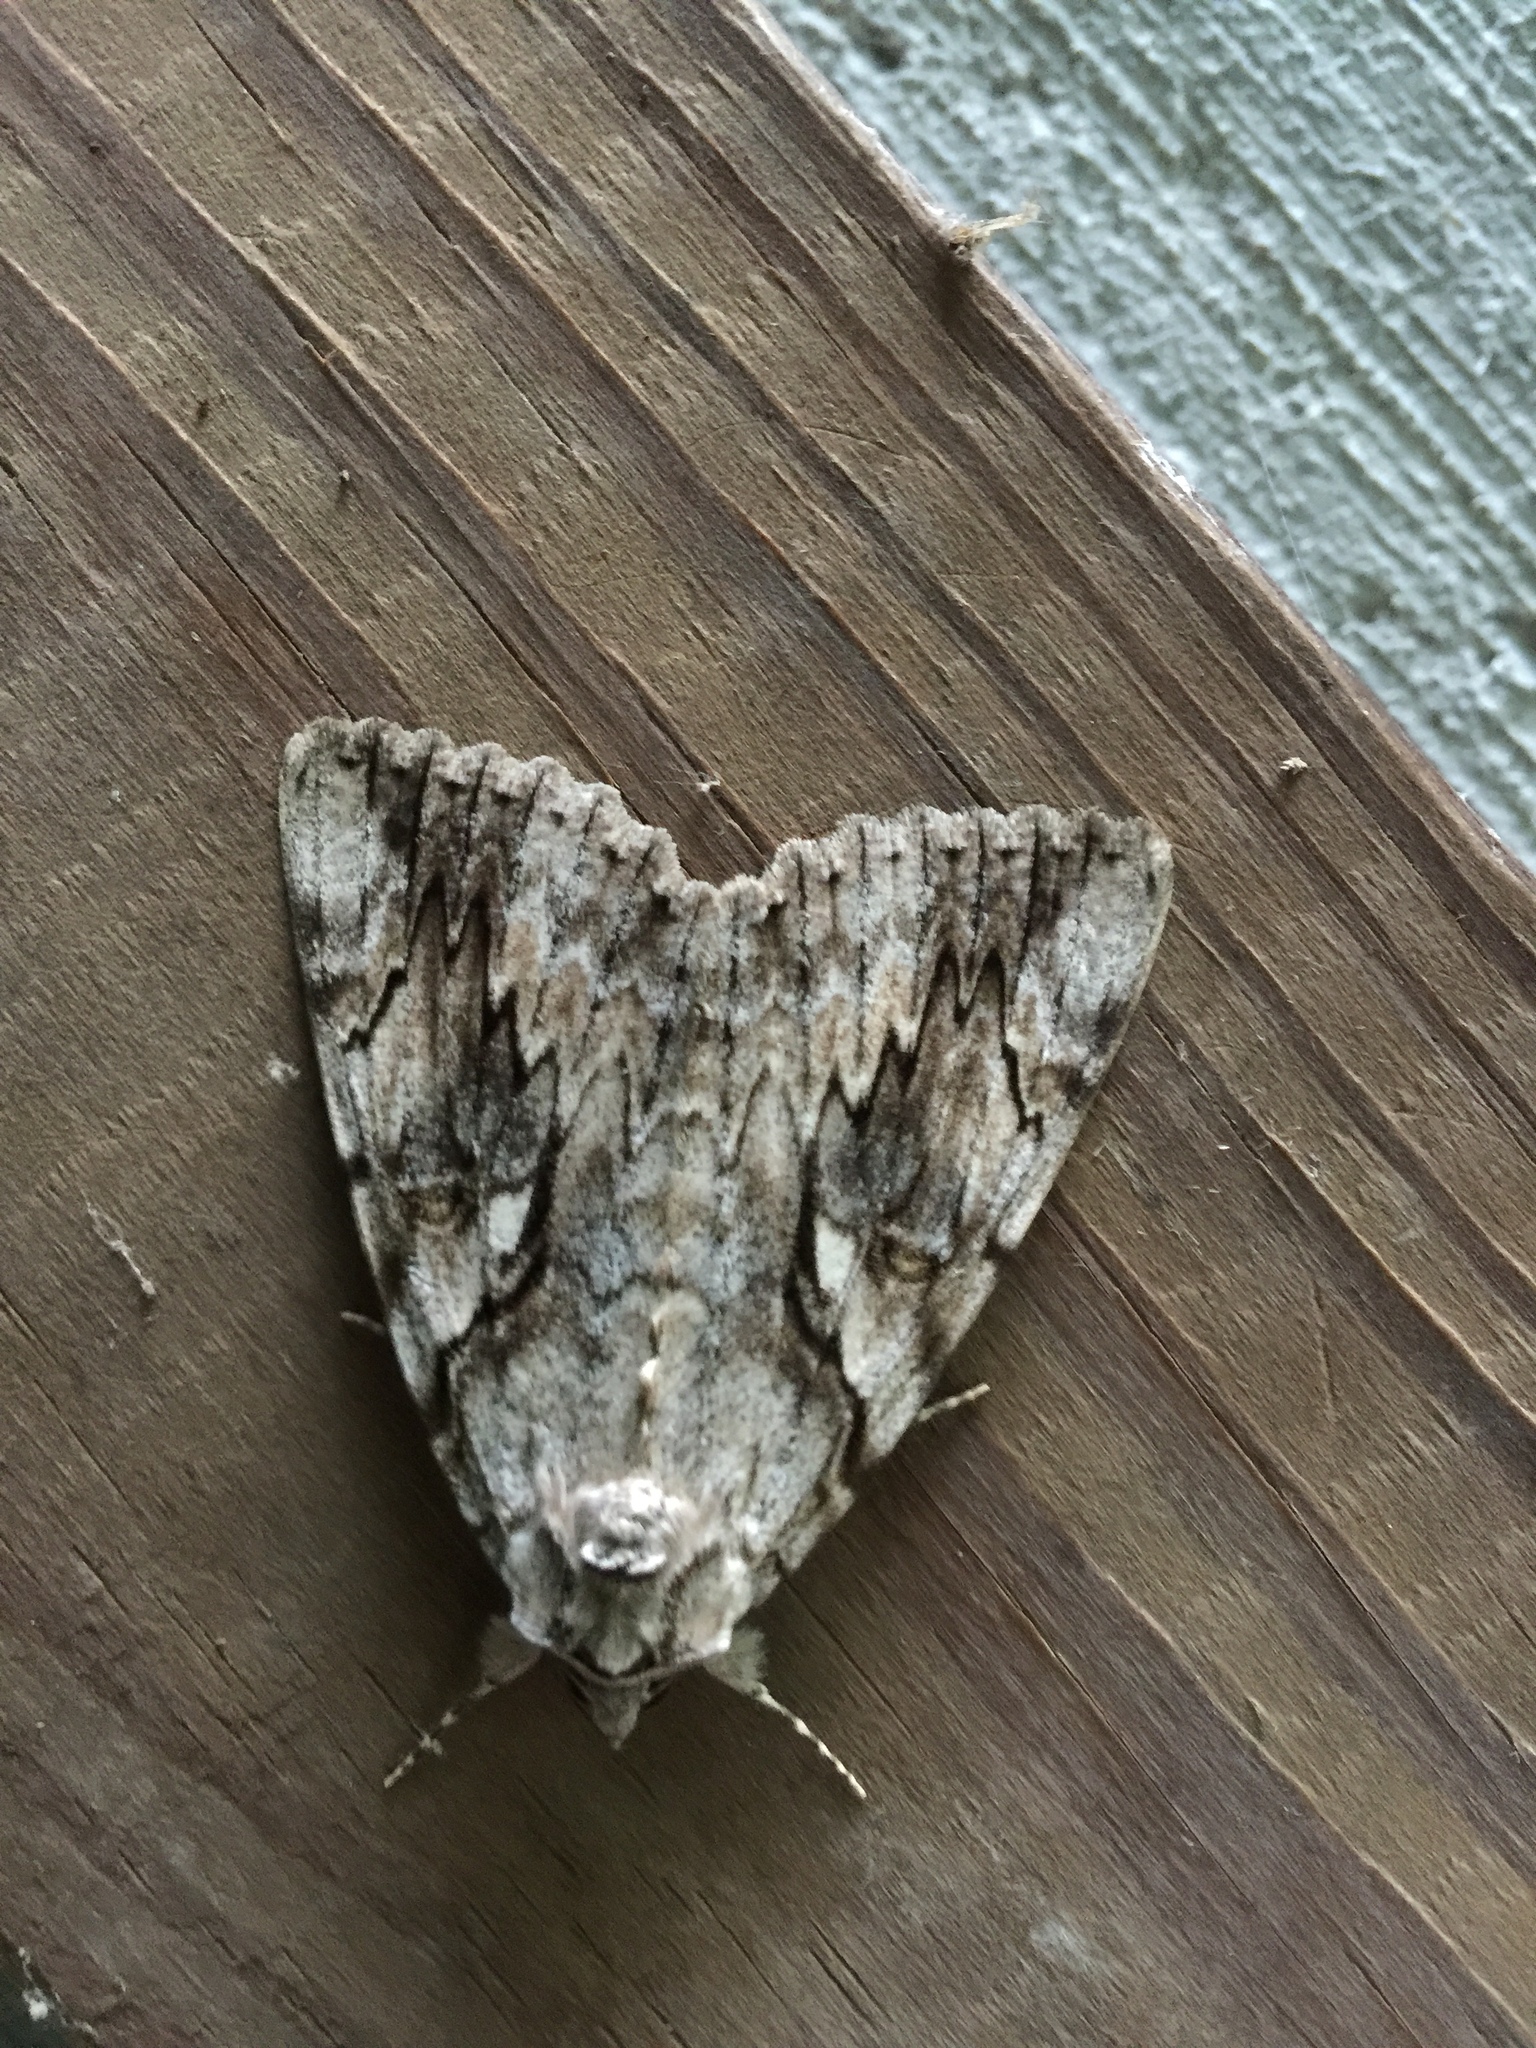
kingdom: Animalia
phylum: Arthropoda
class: Insecta
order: Lepidoptera
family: Erebidae
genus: Catocala
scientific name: Catocala cerogama
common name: Yellow banded underwing
